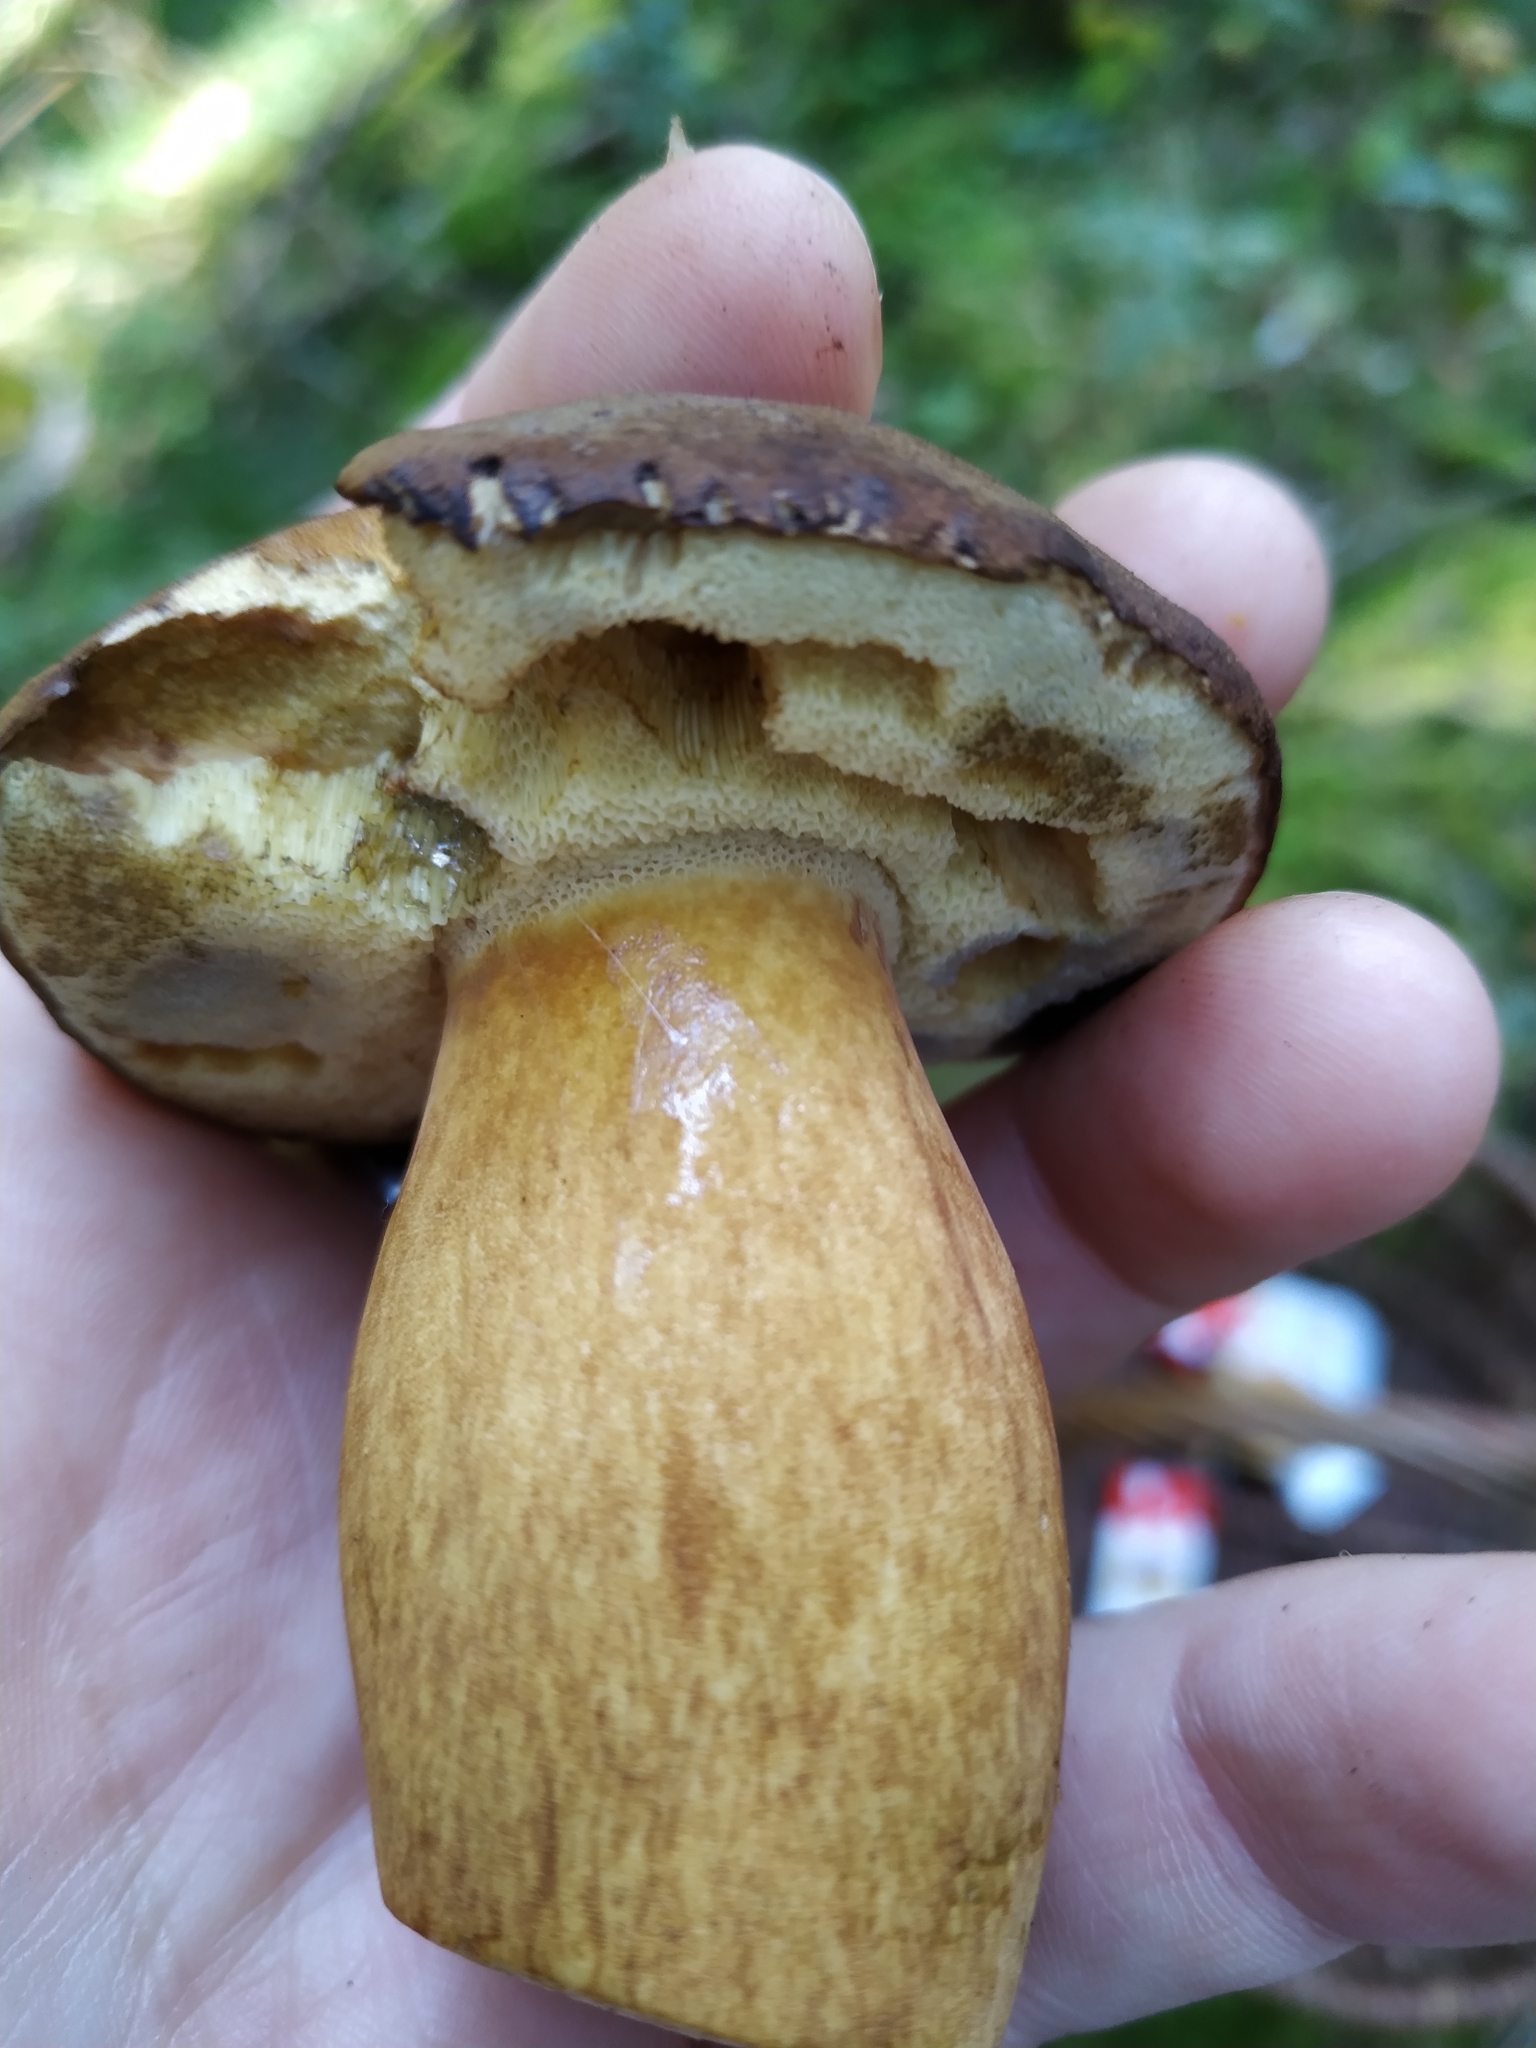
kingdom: Fungi
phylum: Basidiomycota
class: Agaricomycetes
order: Boletales
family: Boletaceae
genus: Imleria
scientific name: Imleria badia
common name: Bay bolete
